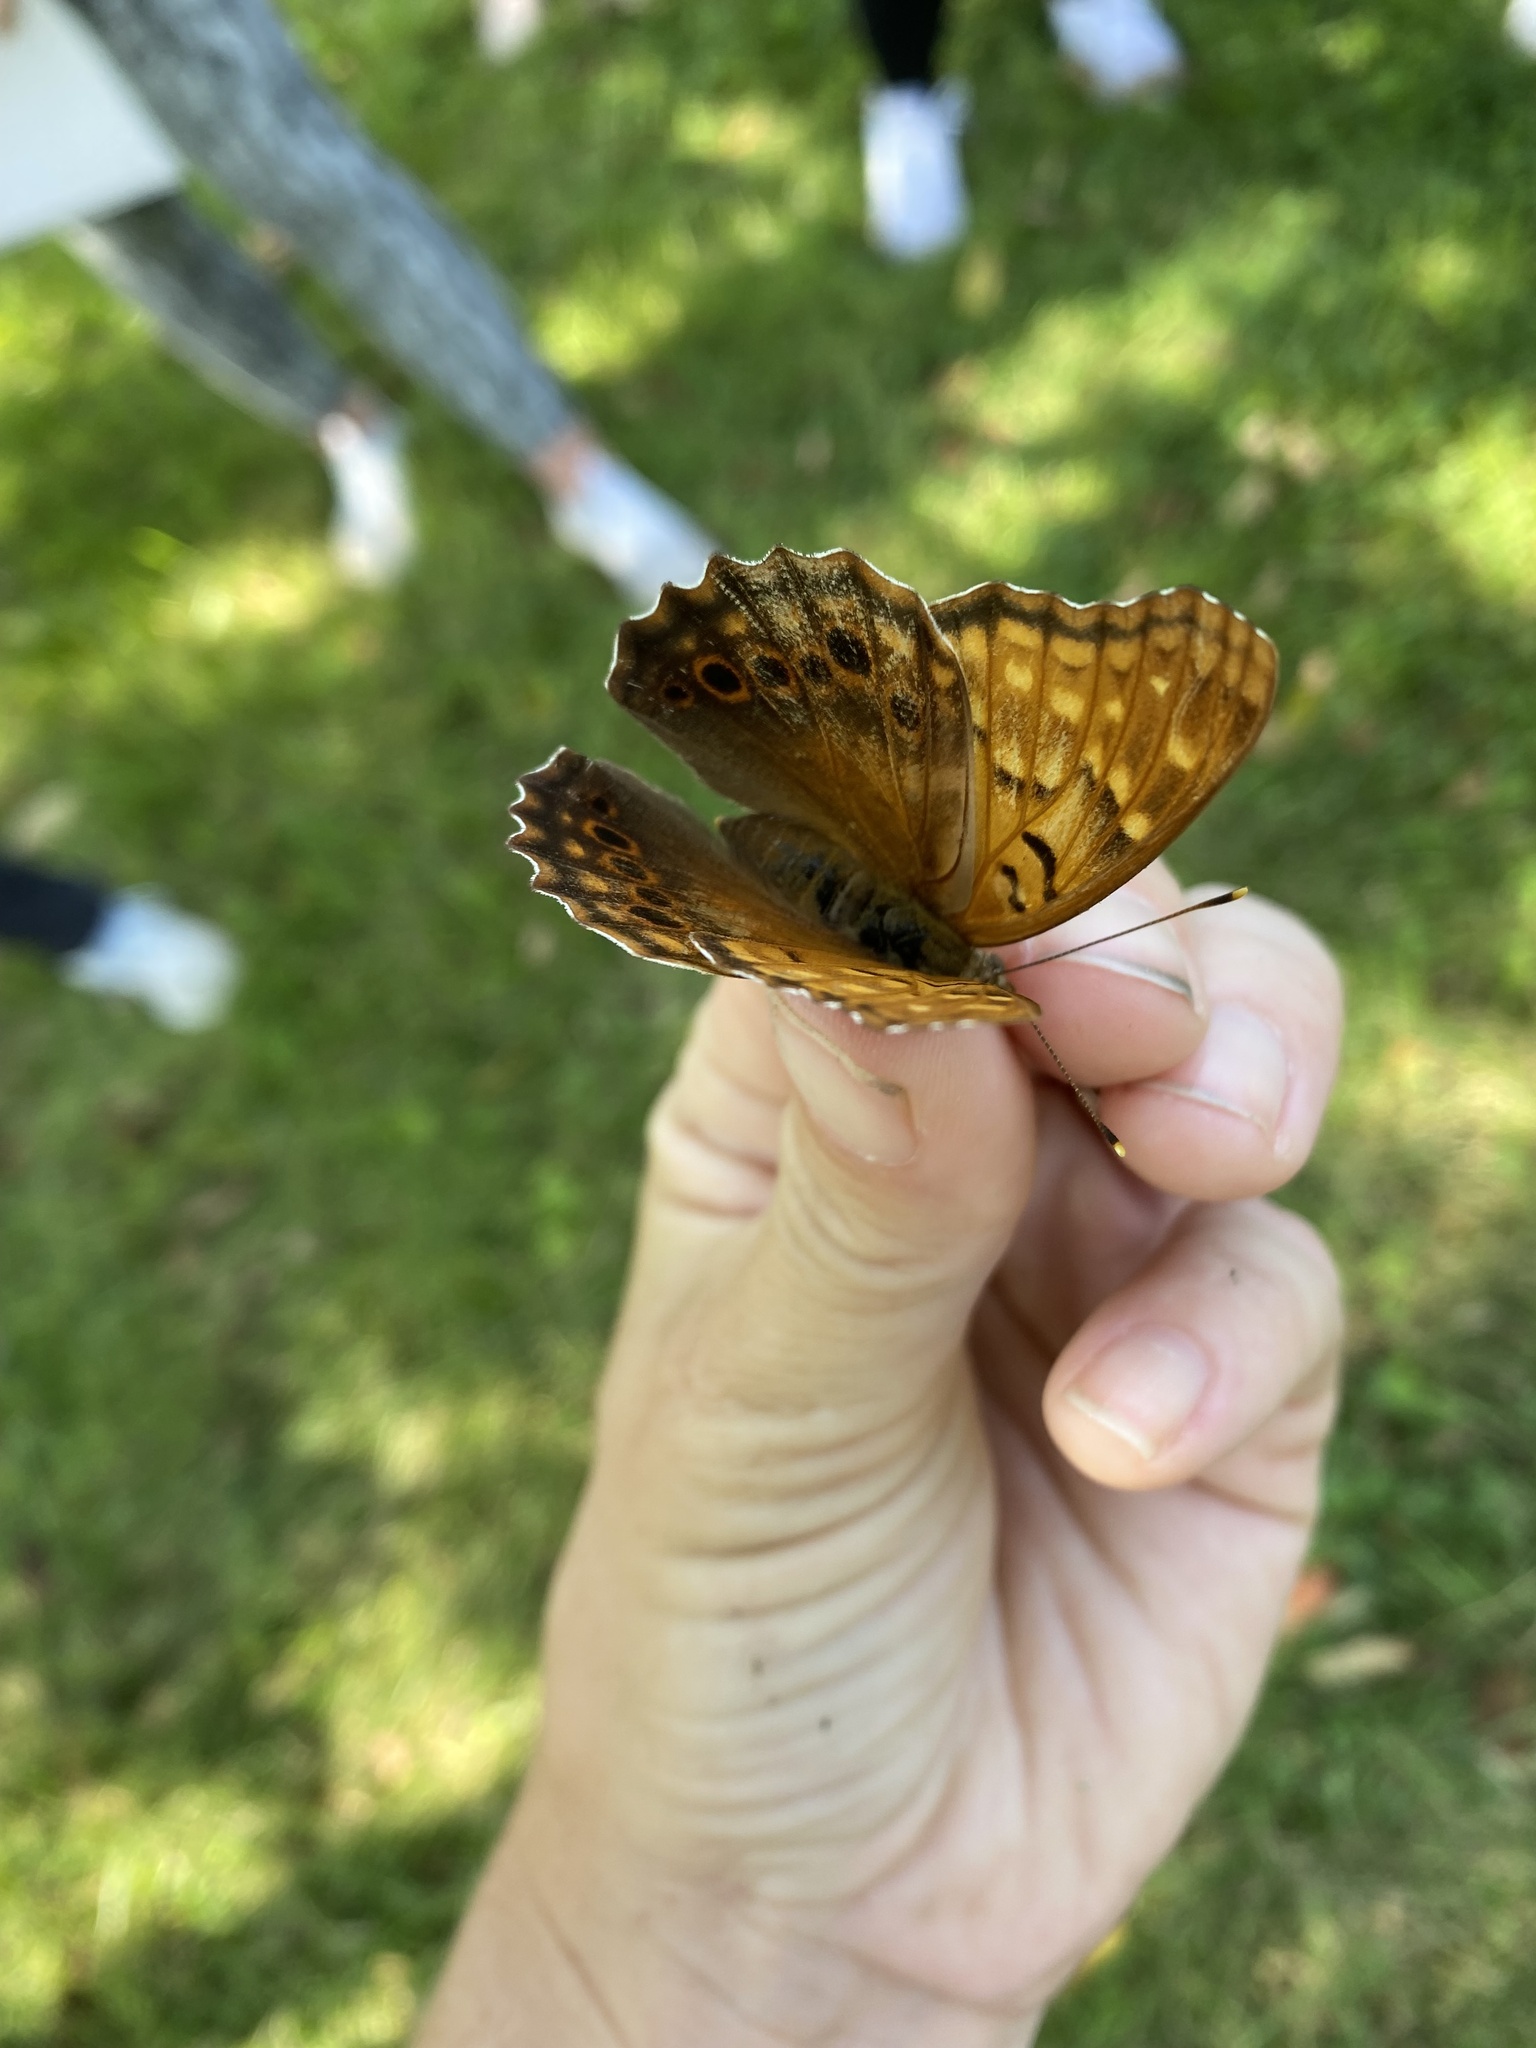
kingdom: Animalia
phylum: Arthropoda
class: Insecta
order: Lepidoptera
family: Nymphalidae
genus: Asterocampa
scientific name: Asterocampa clyton
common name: Tawny emperor
